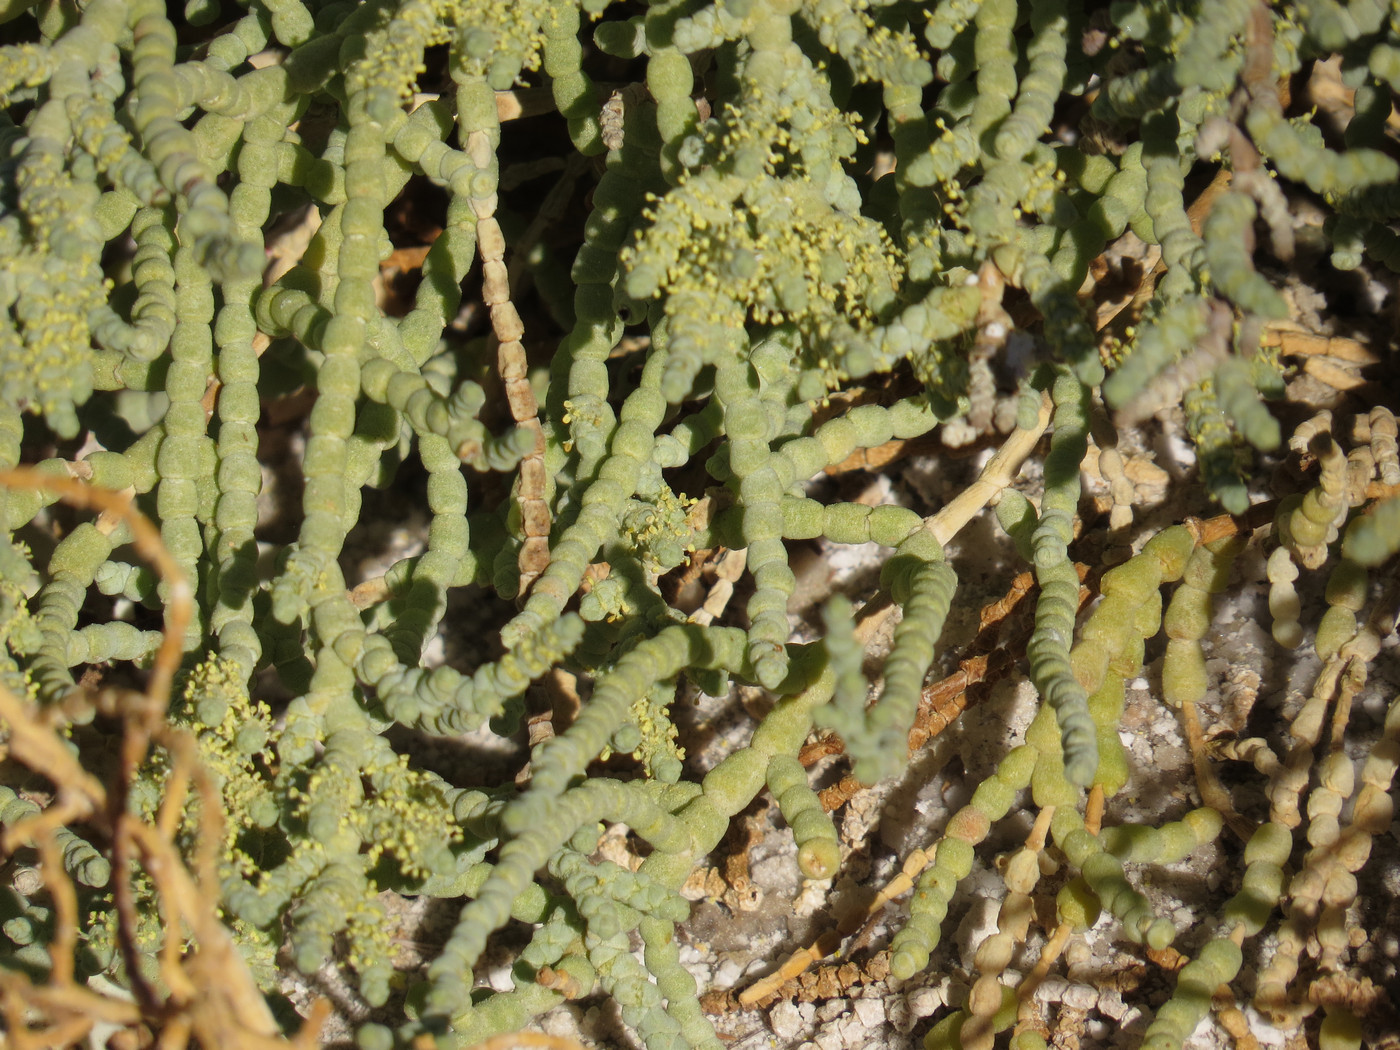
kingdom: Plantae
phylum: Tracheophyta
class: Magnoliopsida
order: Caryophyllales
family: Amaranthaceae
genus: Allenrolfea
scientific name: Allenrolfea occidentalis
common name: Iodine-bush
